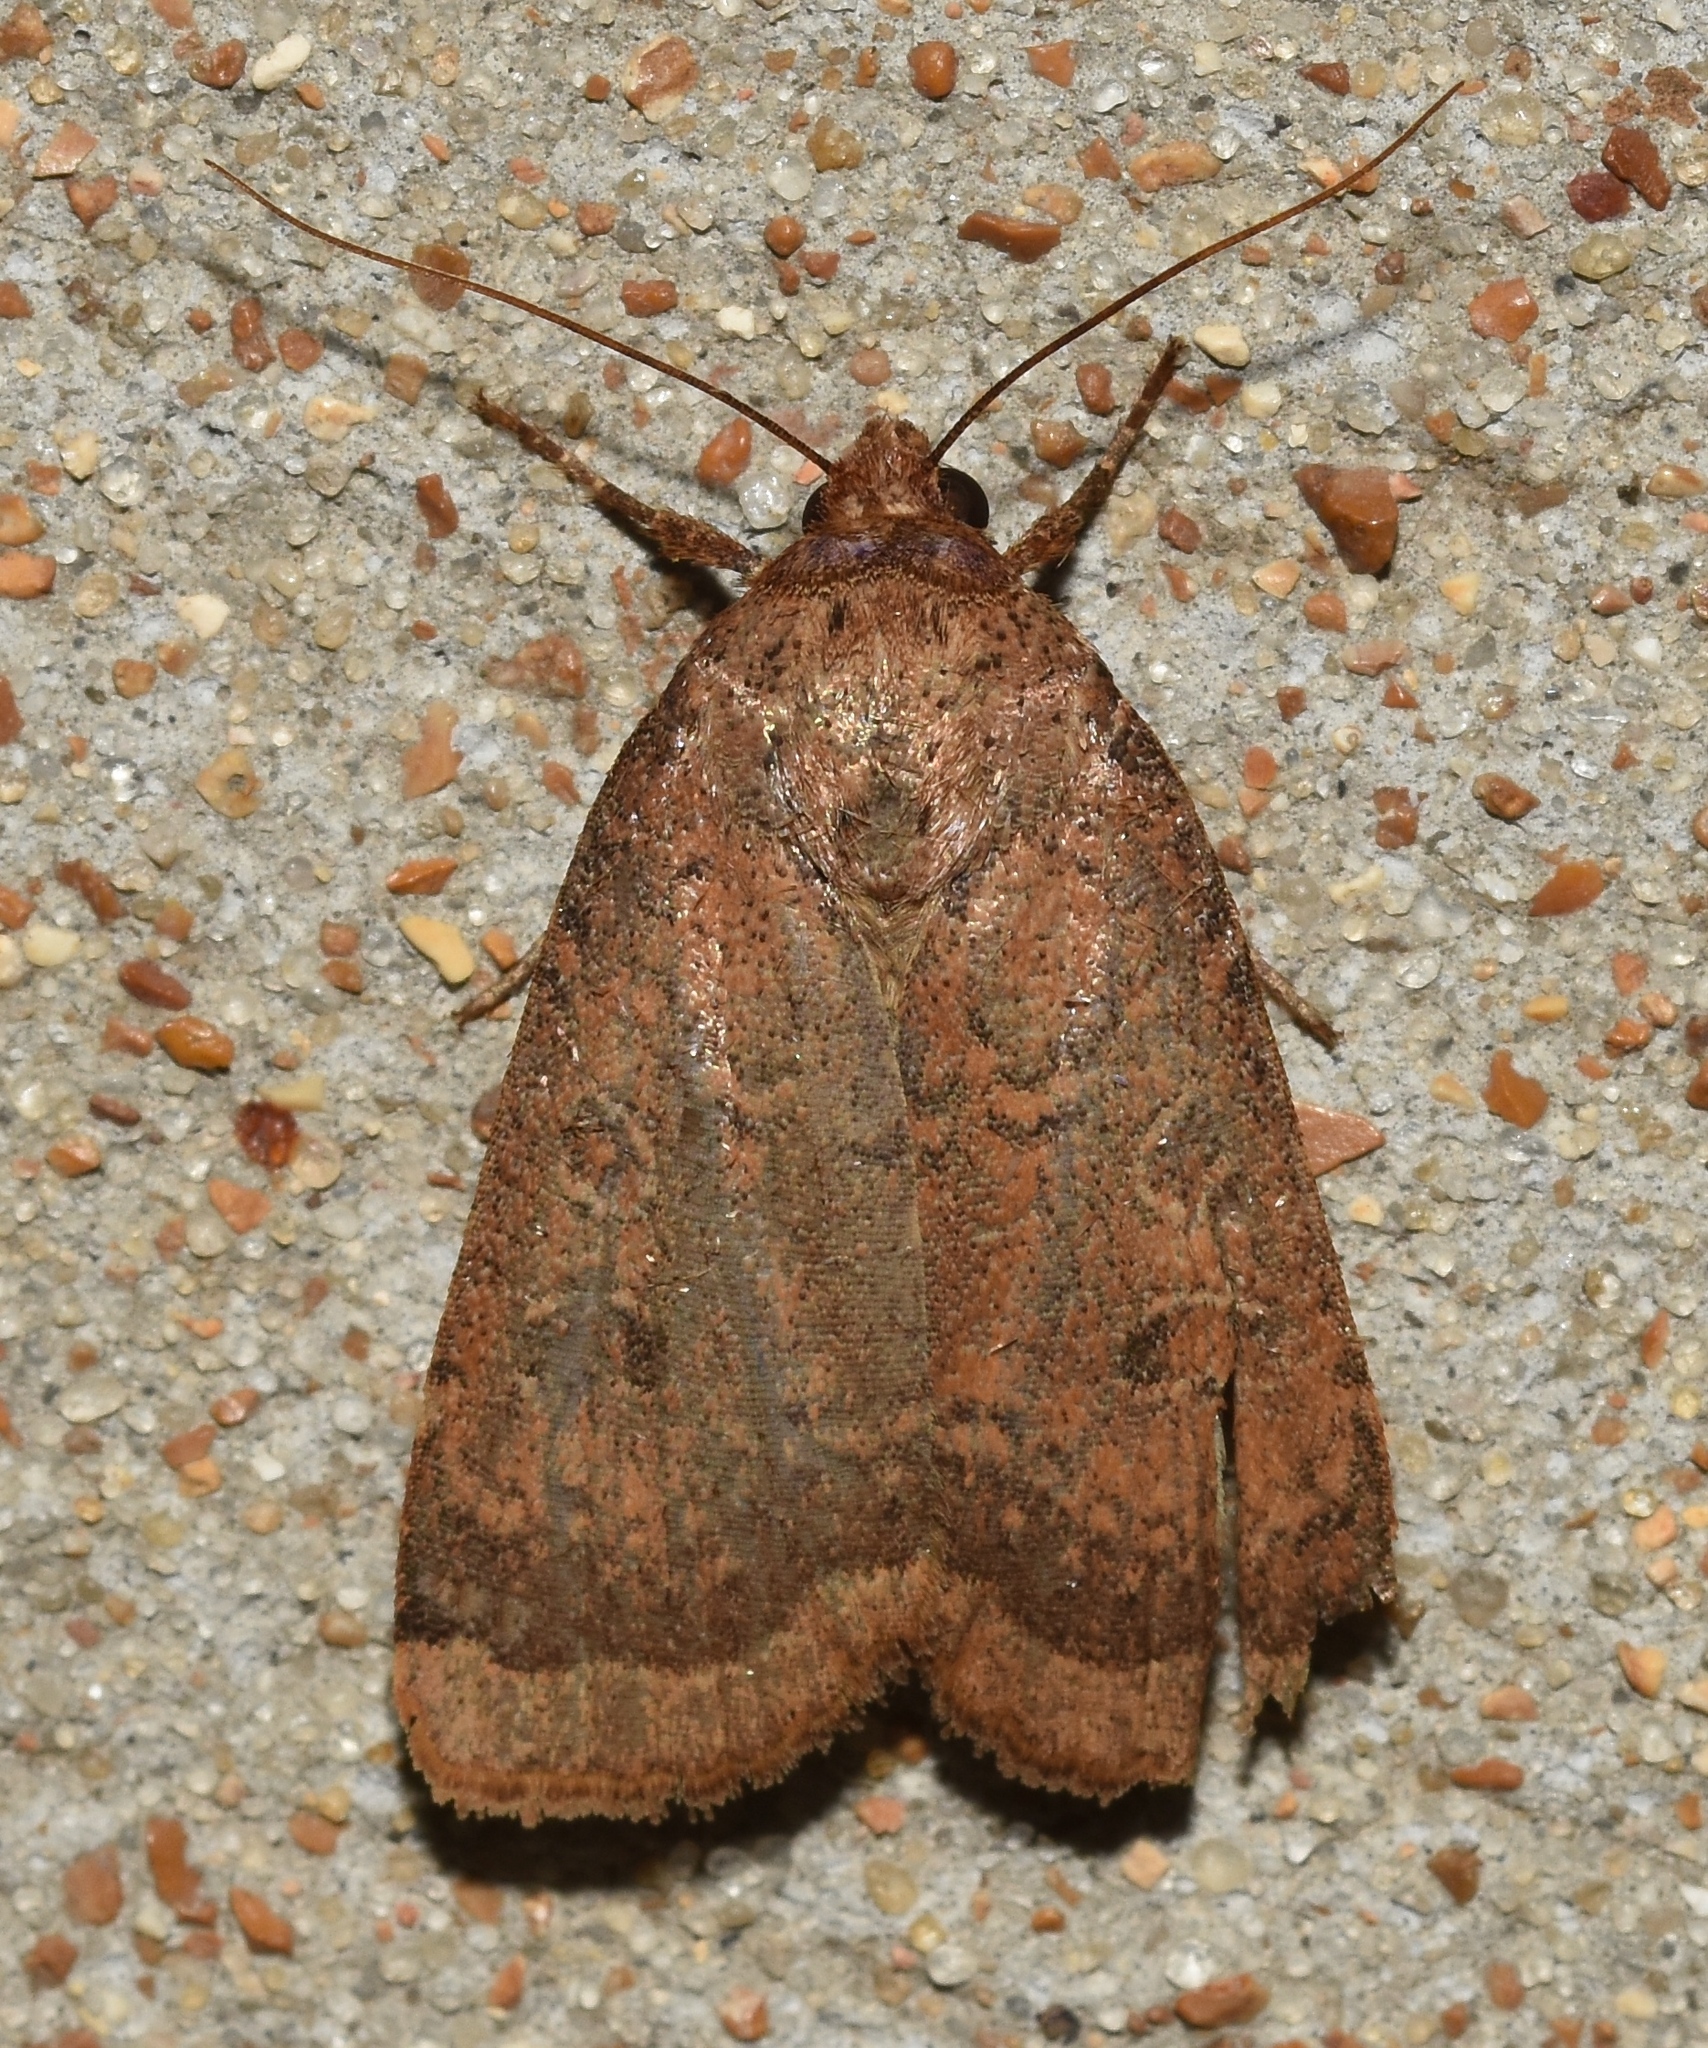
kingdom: Animalia
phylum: Arthropoda
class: Insecta
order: Lepidoptera
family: Noctuidae
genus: Abagrotis
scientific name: Abagrotis alternata
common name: Greater red dart
